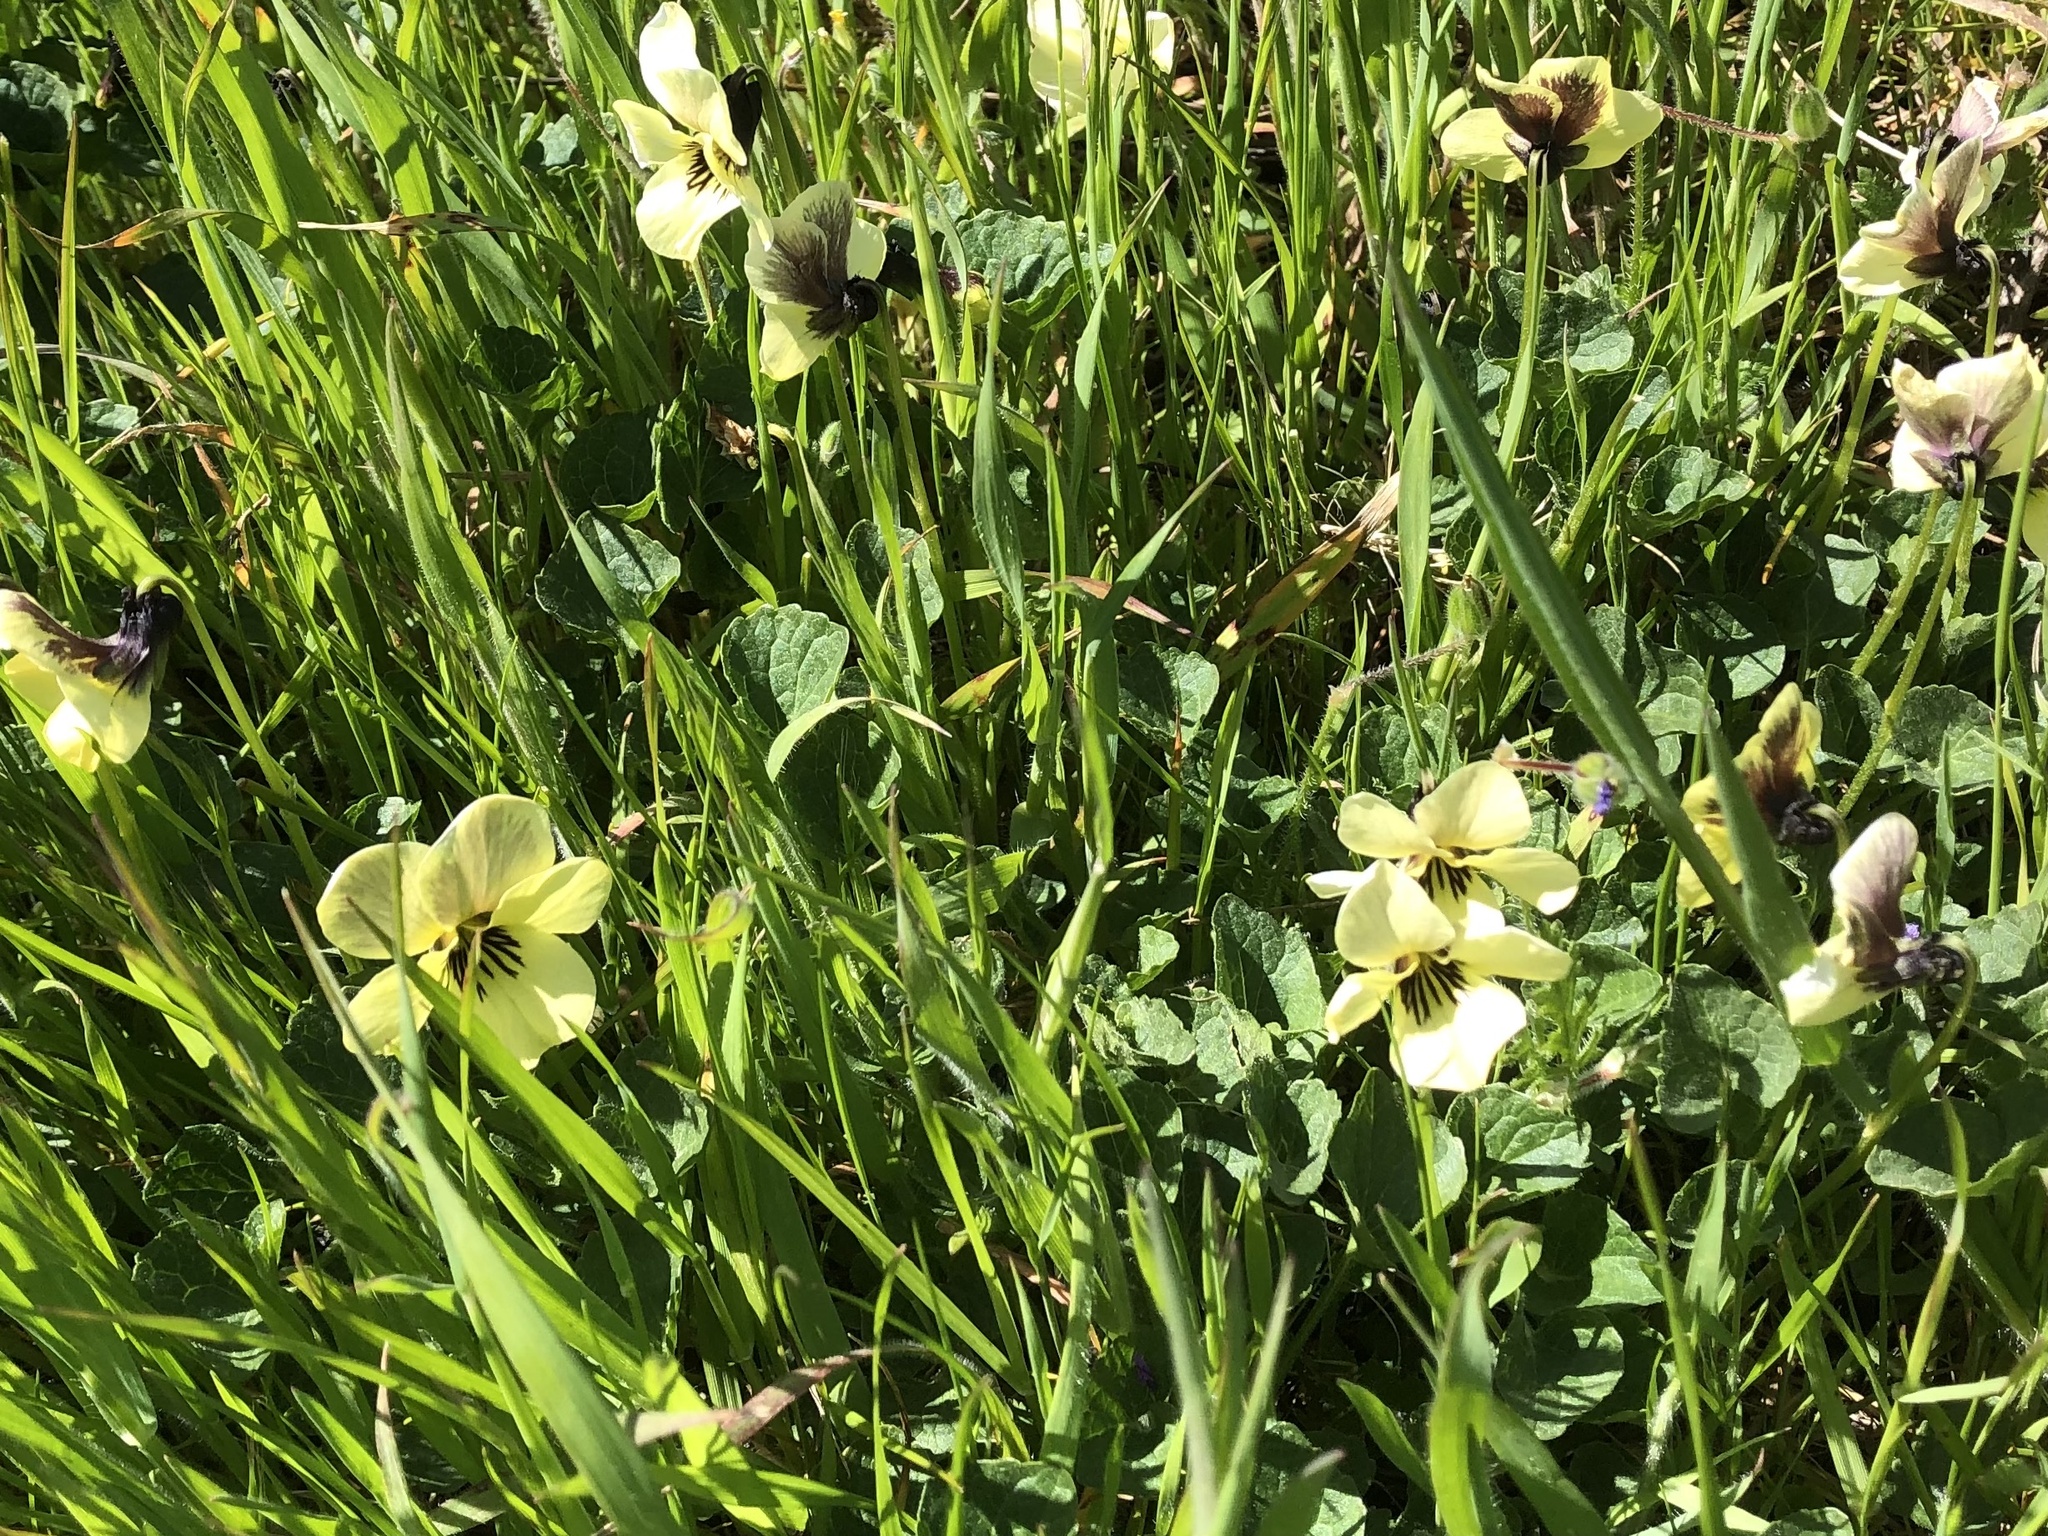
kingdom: Plantae
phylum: Tracheophyta
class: Magnoliopsida
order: Malpighiales
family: Violaceae
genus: Viola
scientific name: Viola pedunculata
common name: California golden violet
